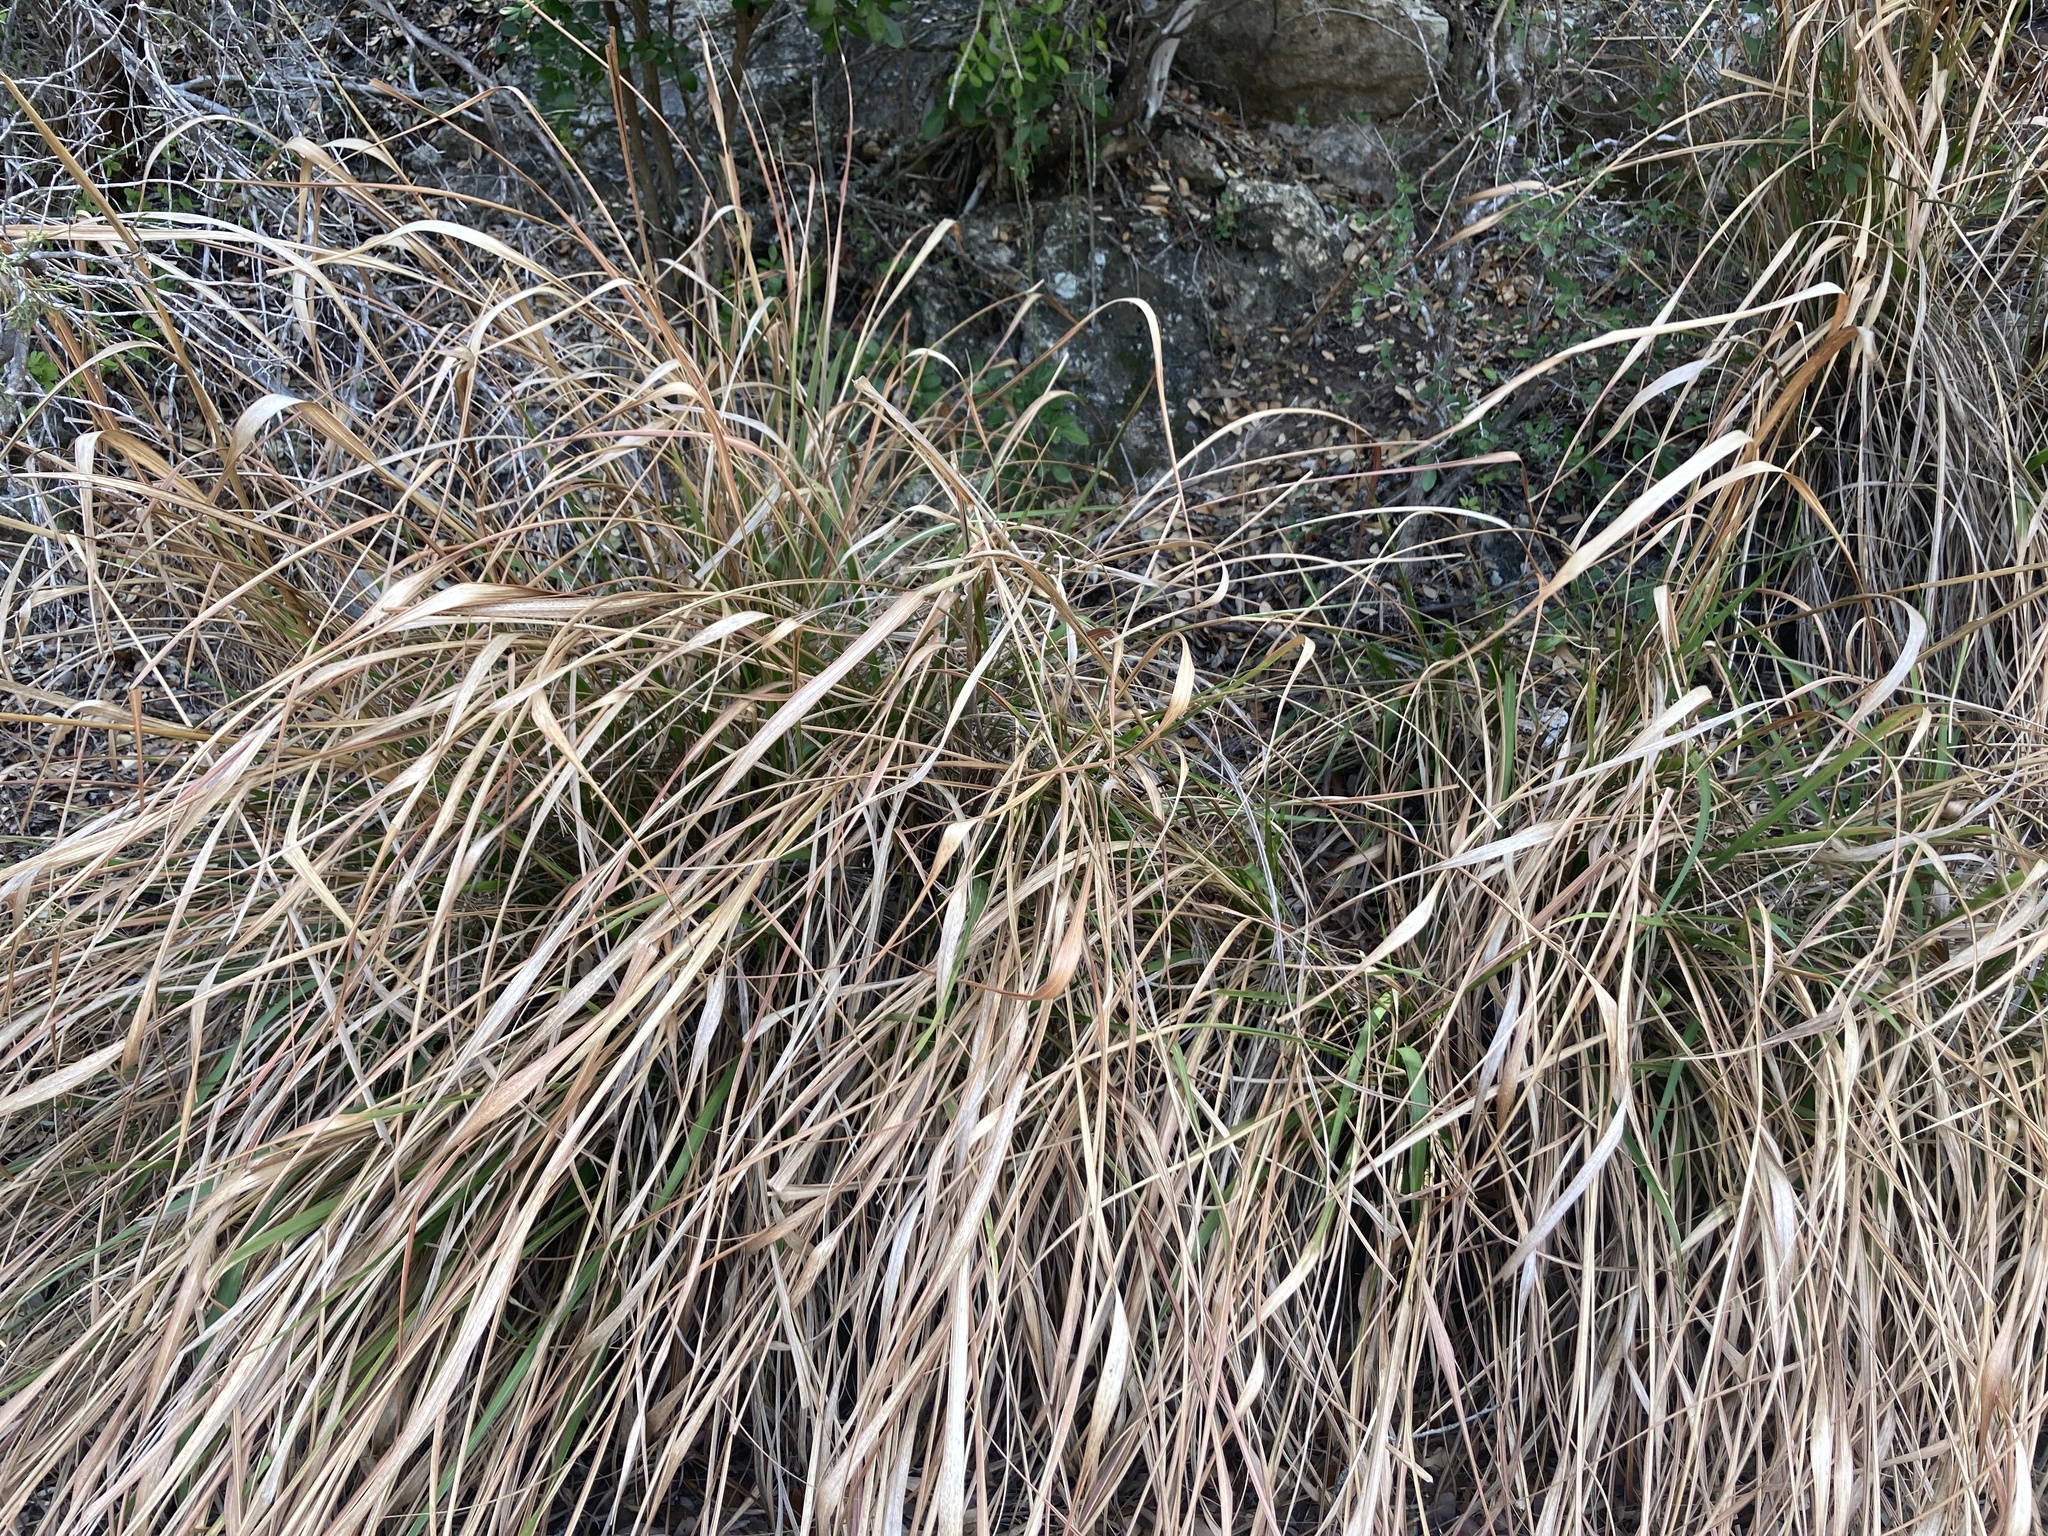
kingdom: Plantae
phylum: Tracheophyta
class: Liliopsida
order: Poales
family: Poaceae
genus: Tripsacum
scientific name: Tripsacum dactyloides
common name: Buffalo-grass
